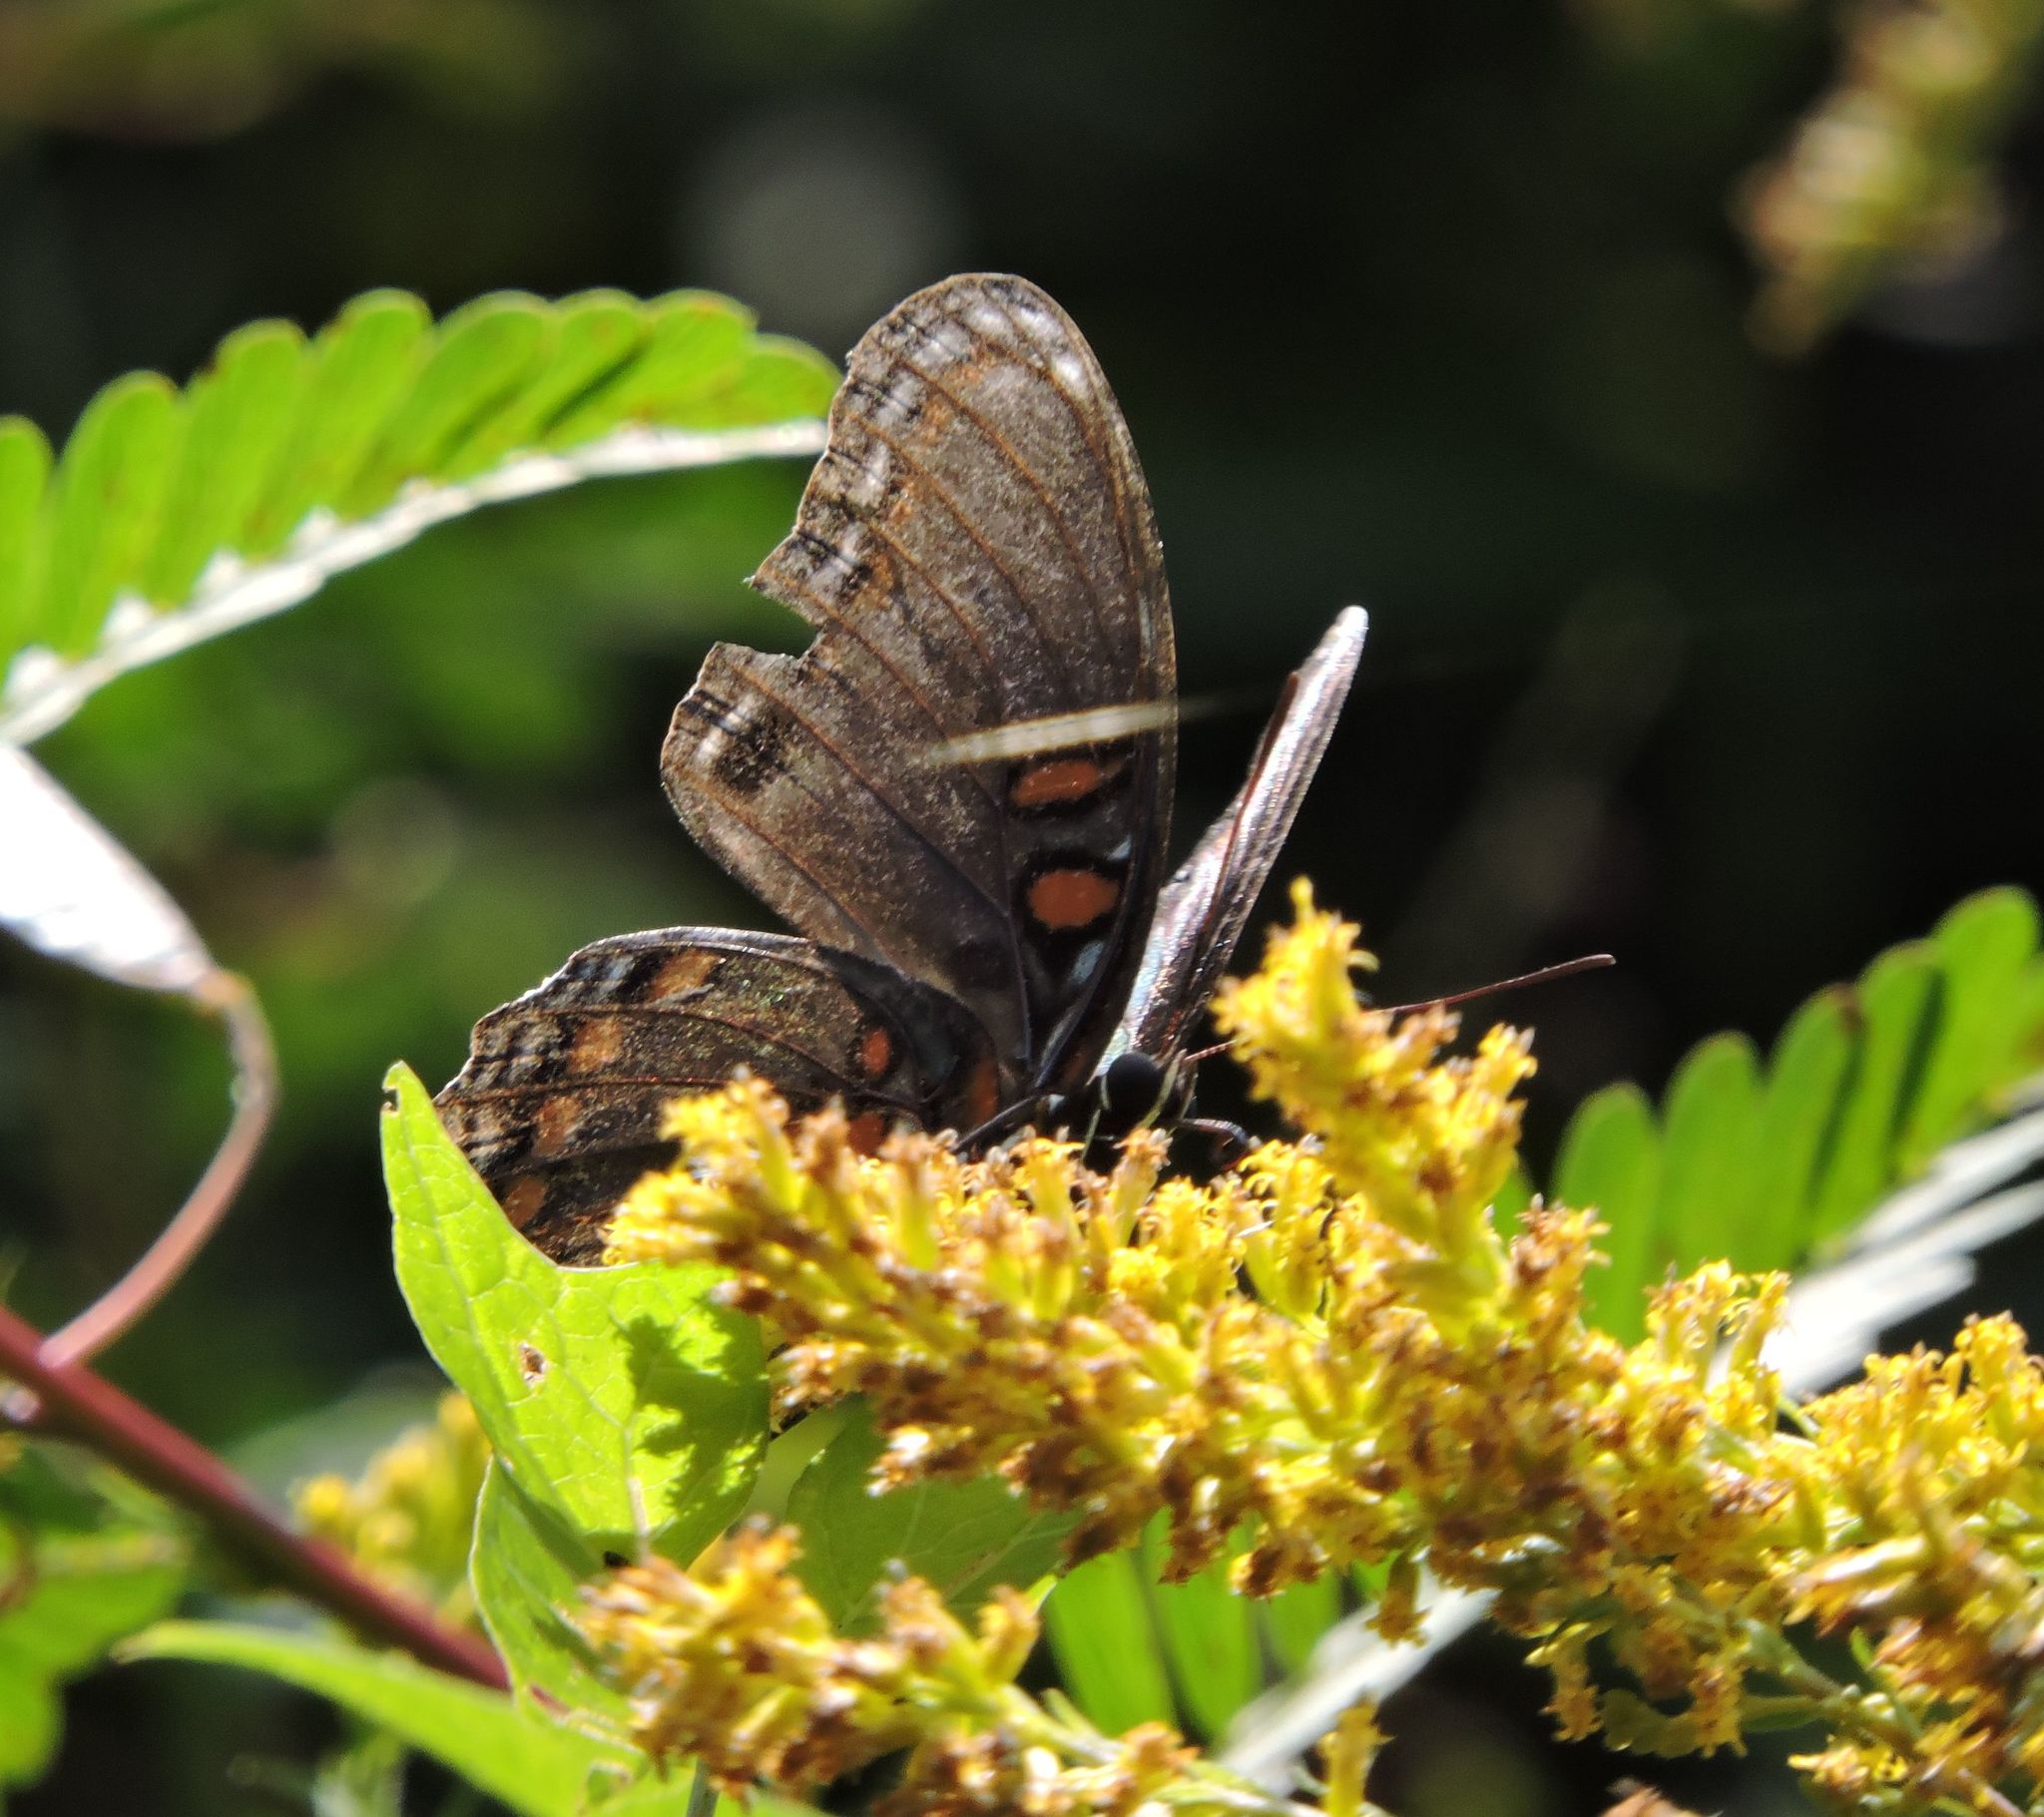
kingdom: Animalia
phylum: Arthropoda
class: Insecta
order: Lepidoptera
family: Nymphalidae
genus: Limenitis
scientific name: Limenitis astyanax
